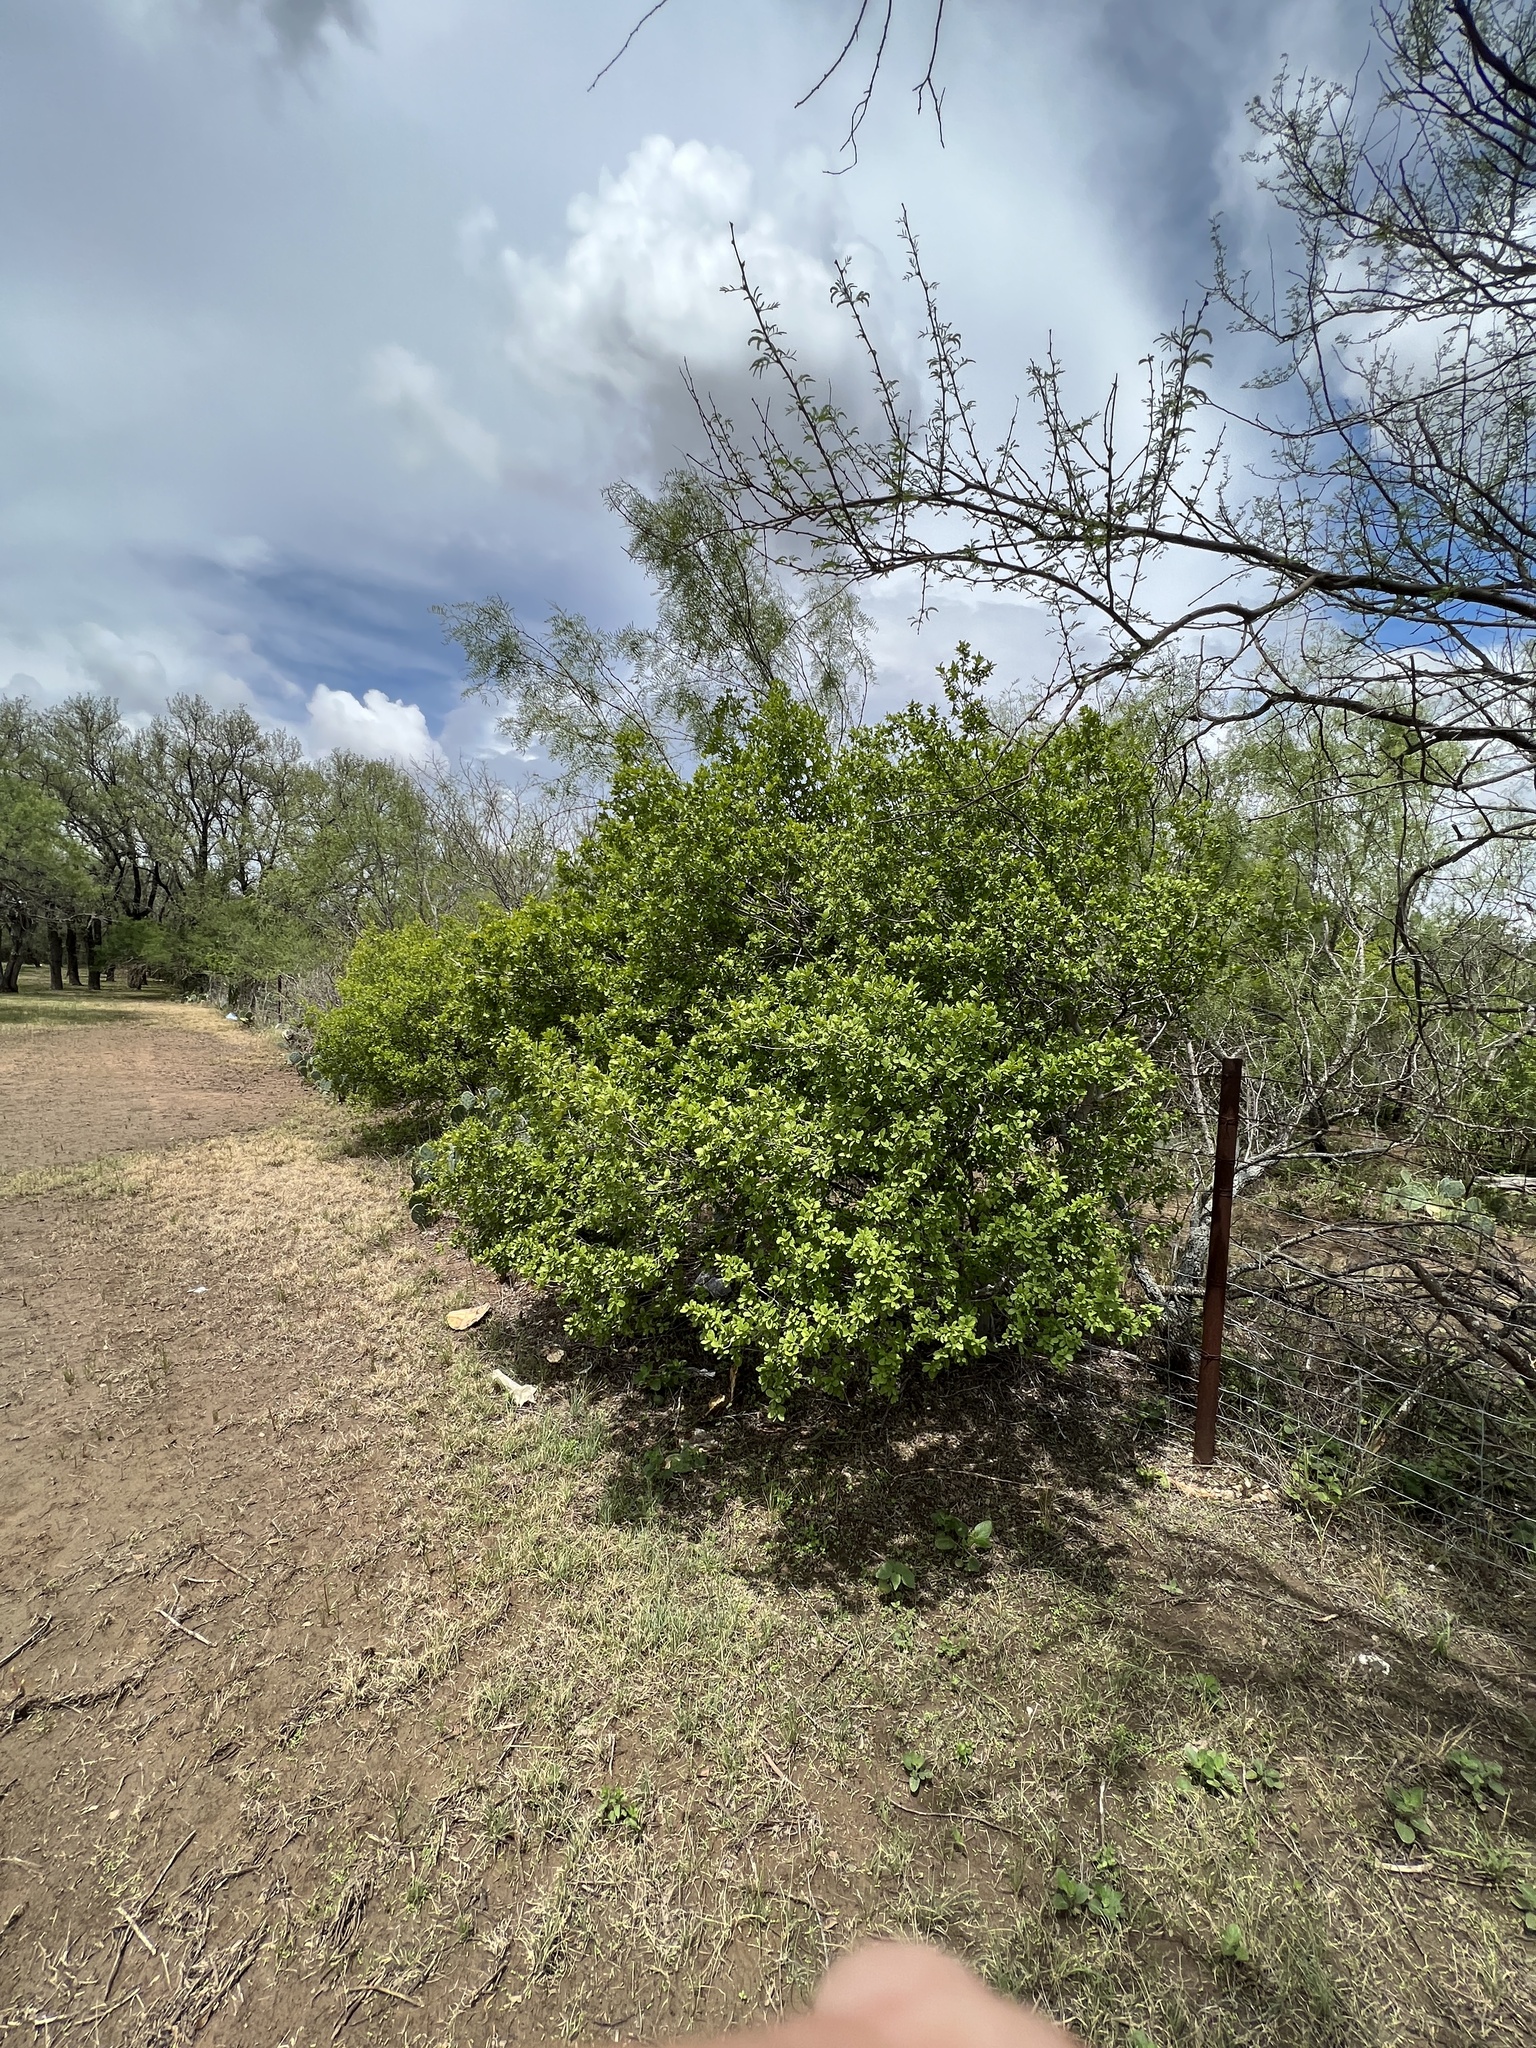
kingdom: Plantae
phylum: Tracheophyta
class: Magnoliopsida
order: Ericales
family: Ebenaceae
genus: Diospyros
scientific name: Diospyros texana
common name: Texas persimmon
